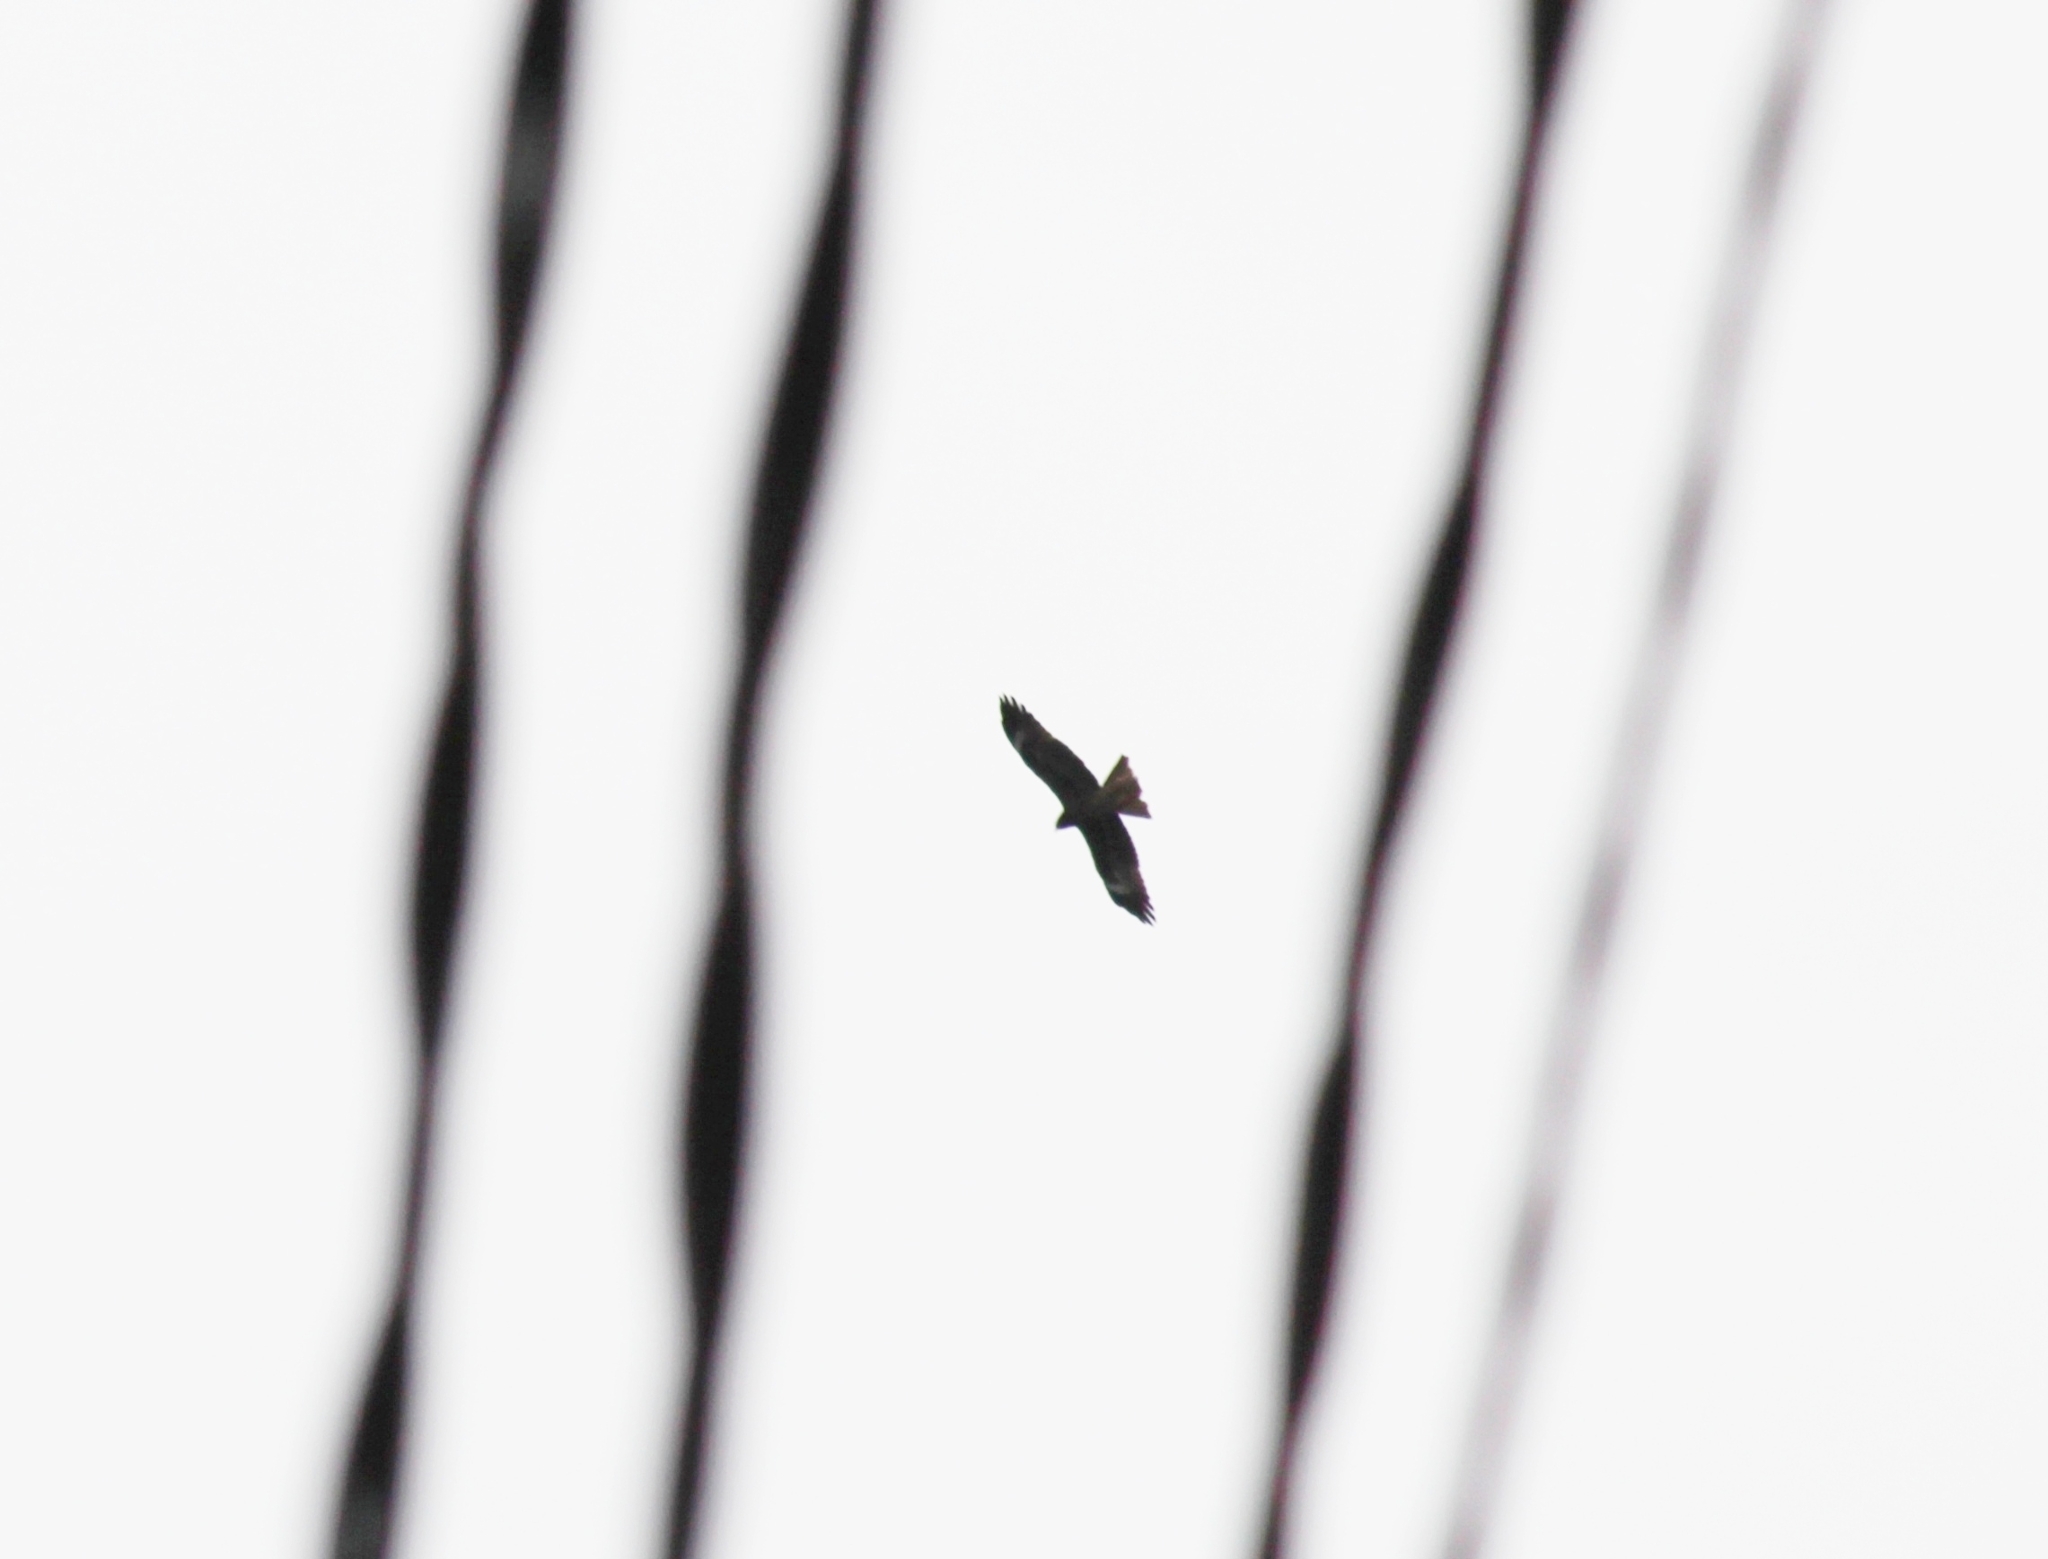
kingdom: Animalia
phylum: Chordata
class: Aves
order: Accipitriformes
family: Accipitridae
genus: Milvus
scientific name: Milvus migrans
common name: Black kite
